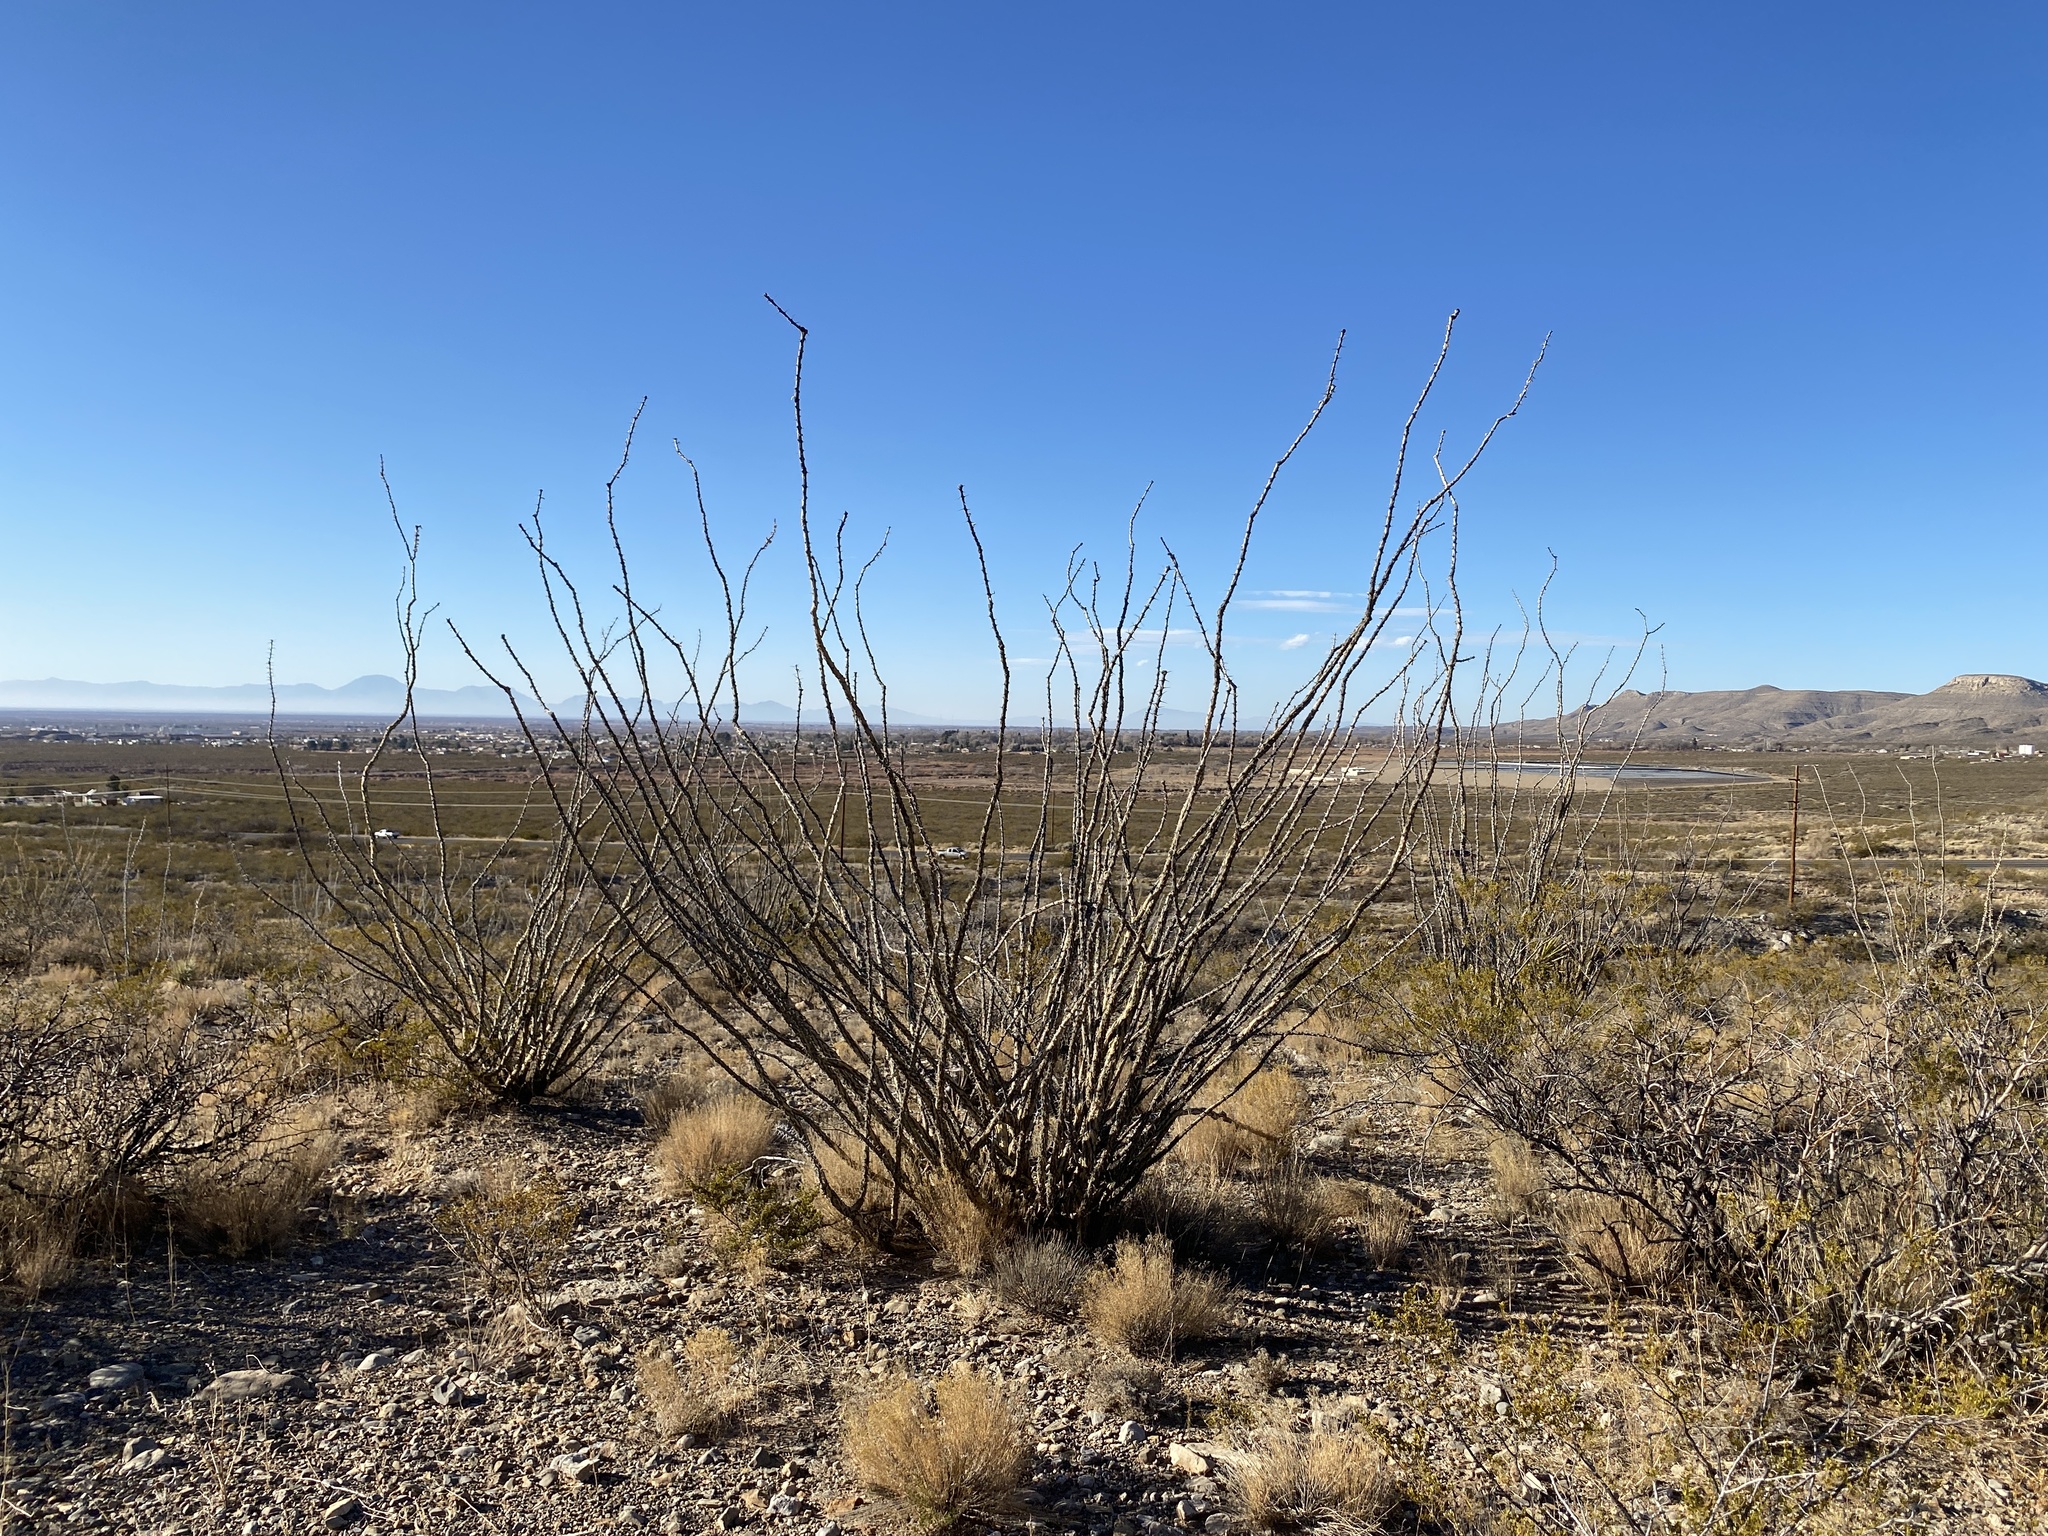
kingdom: Plantae
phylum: Tracheophyta
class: Magnoliopsida
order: Ericales
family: Fouquieriaceae
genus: Fouquieria
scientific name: Fouquieria splendens
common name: Vine-cactus
